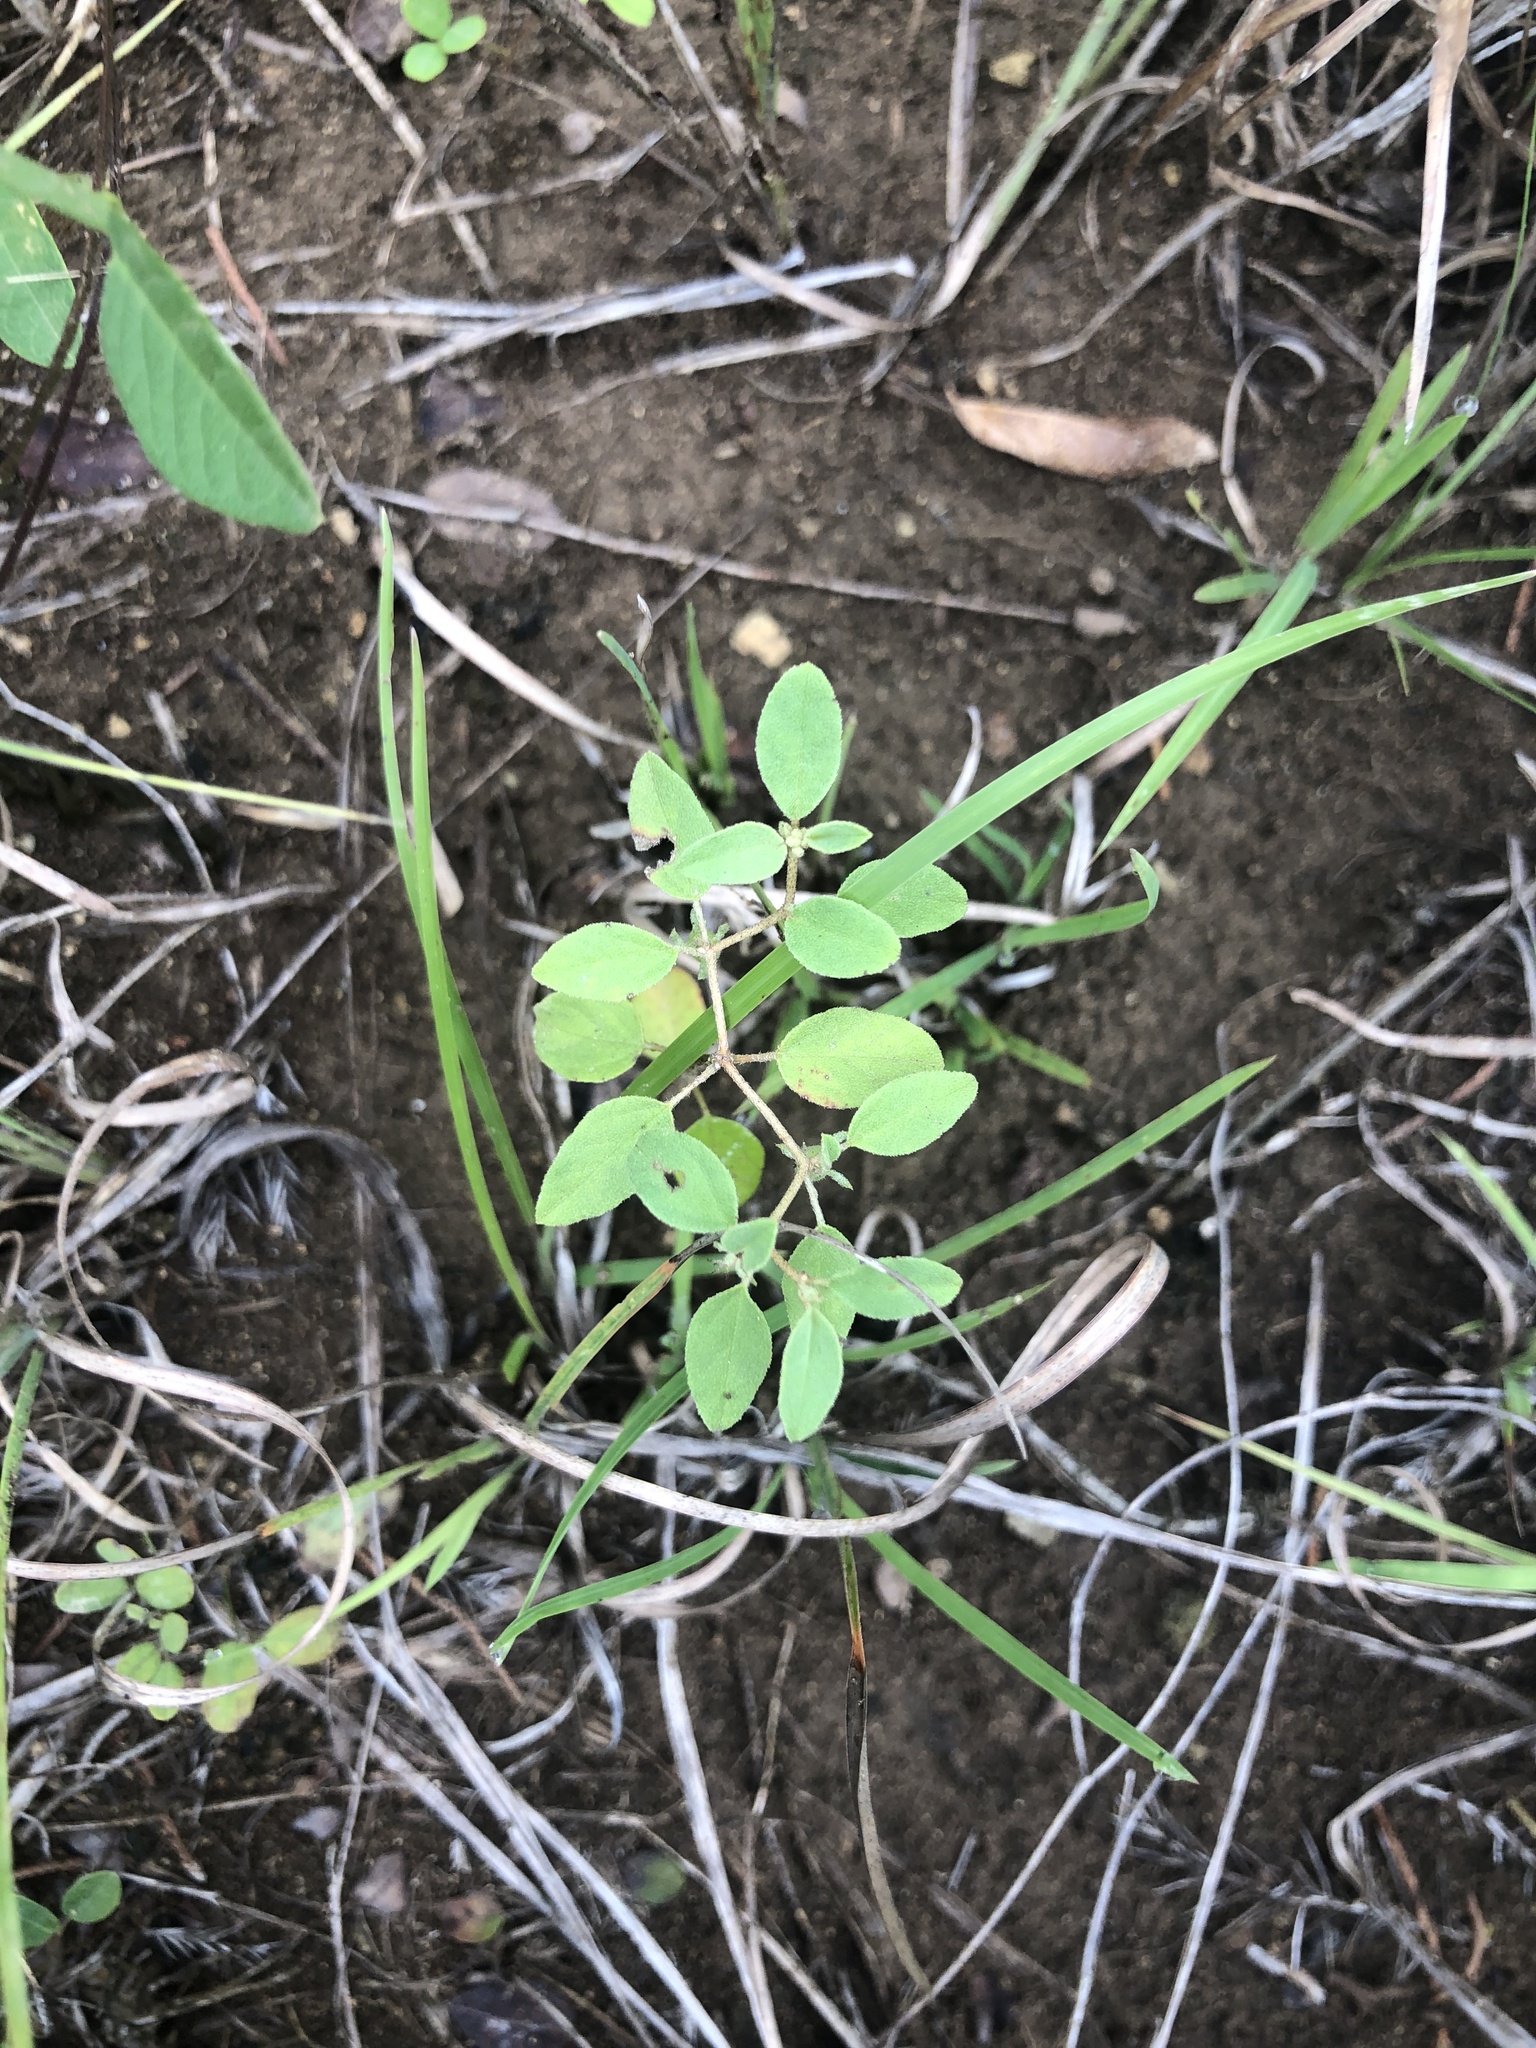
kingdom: Plantae
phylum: Tracheophyta
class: Magnoliopsida
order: Malpighiales
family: Euphorbiaceae
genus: Croton
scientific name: Croton monanthogynus
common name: One-seed croton
